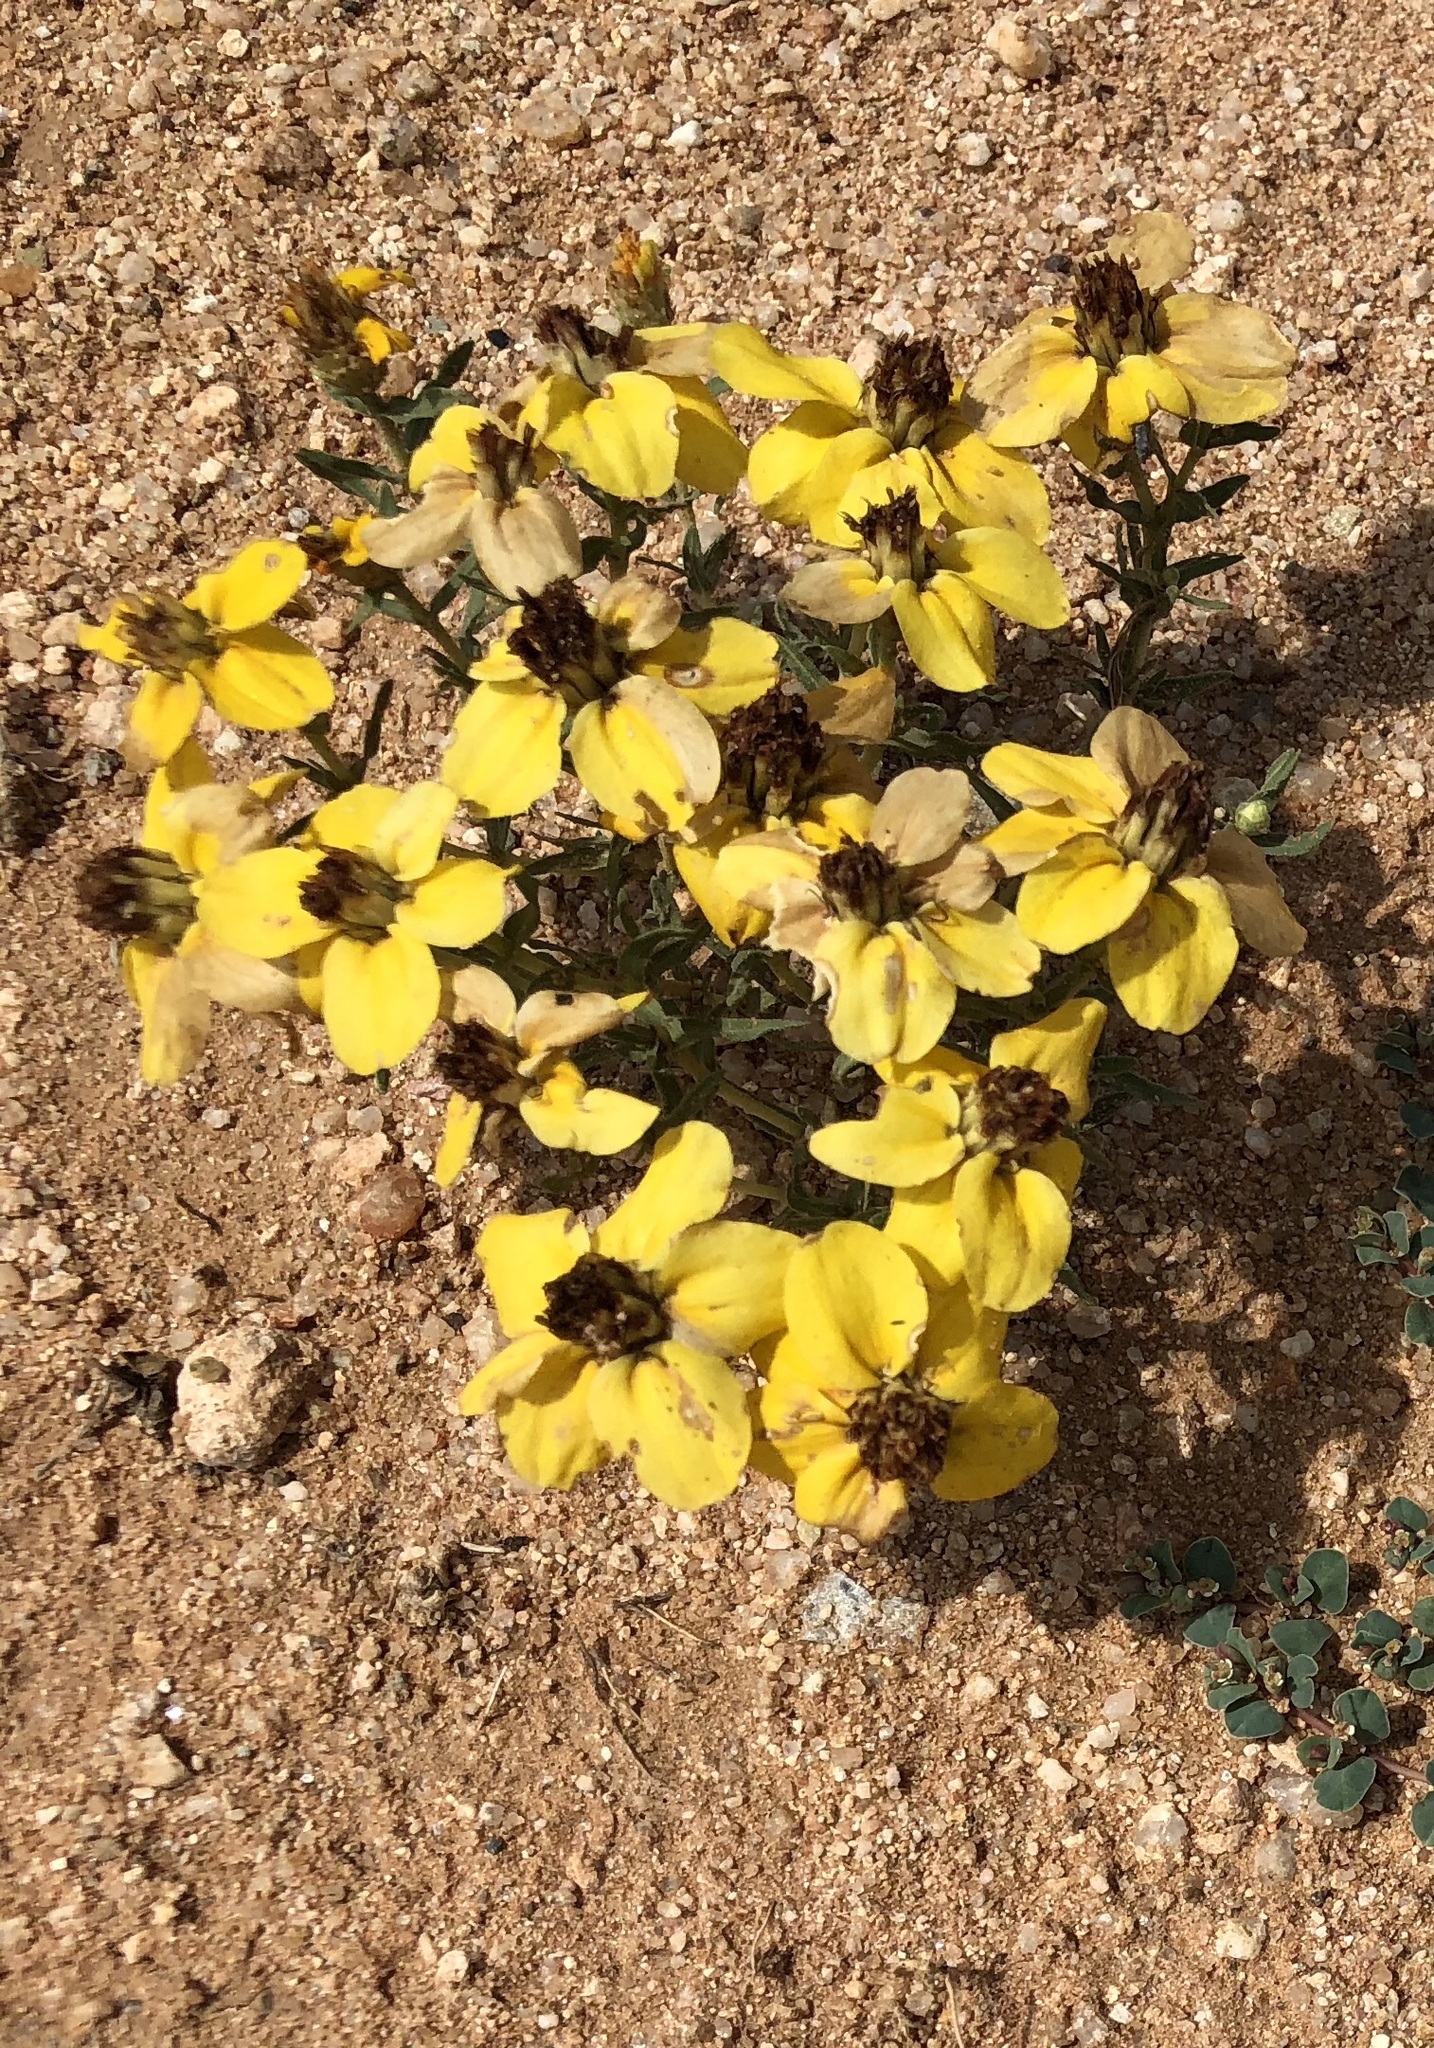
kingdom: Plantae
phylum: Tracheophyta
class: Magnoliopsida
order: Asterales
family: Asteraceae
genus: Zinnia
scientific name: Zinnia grandiflora
